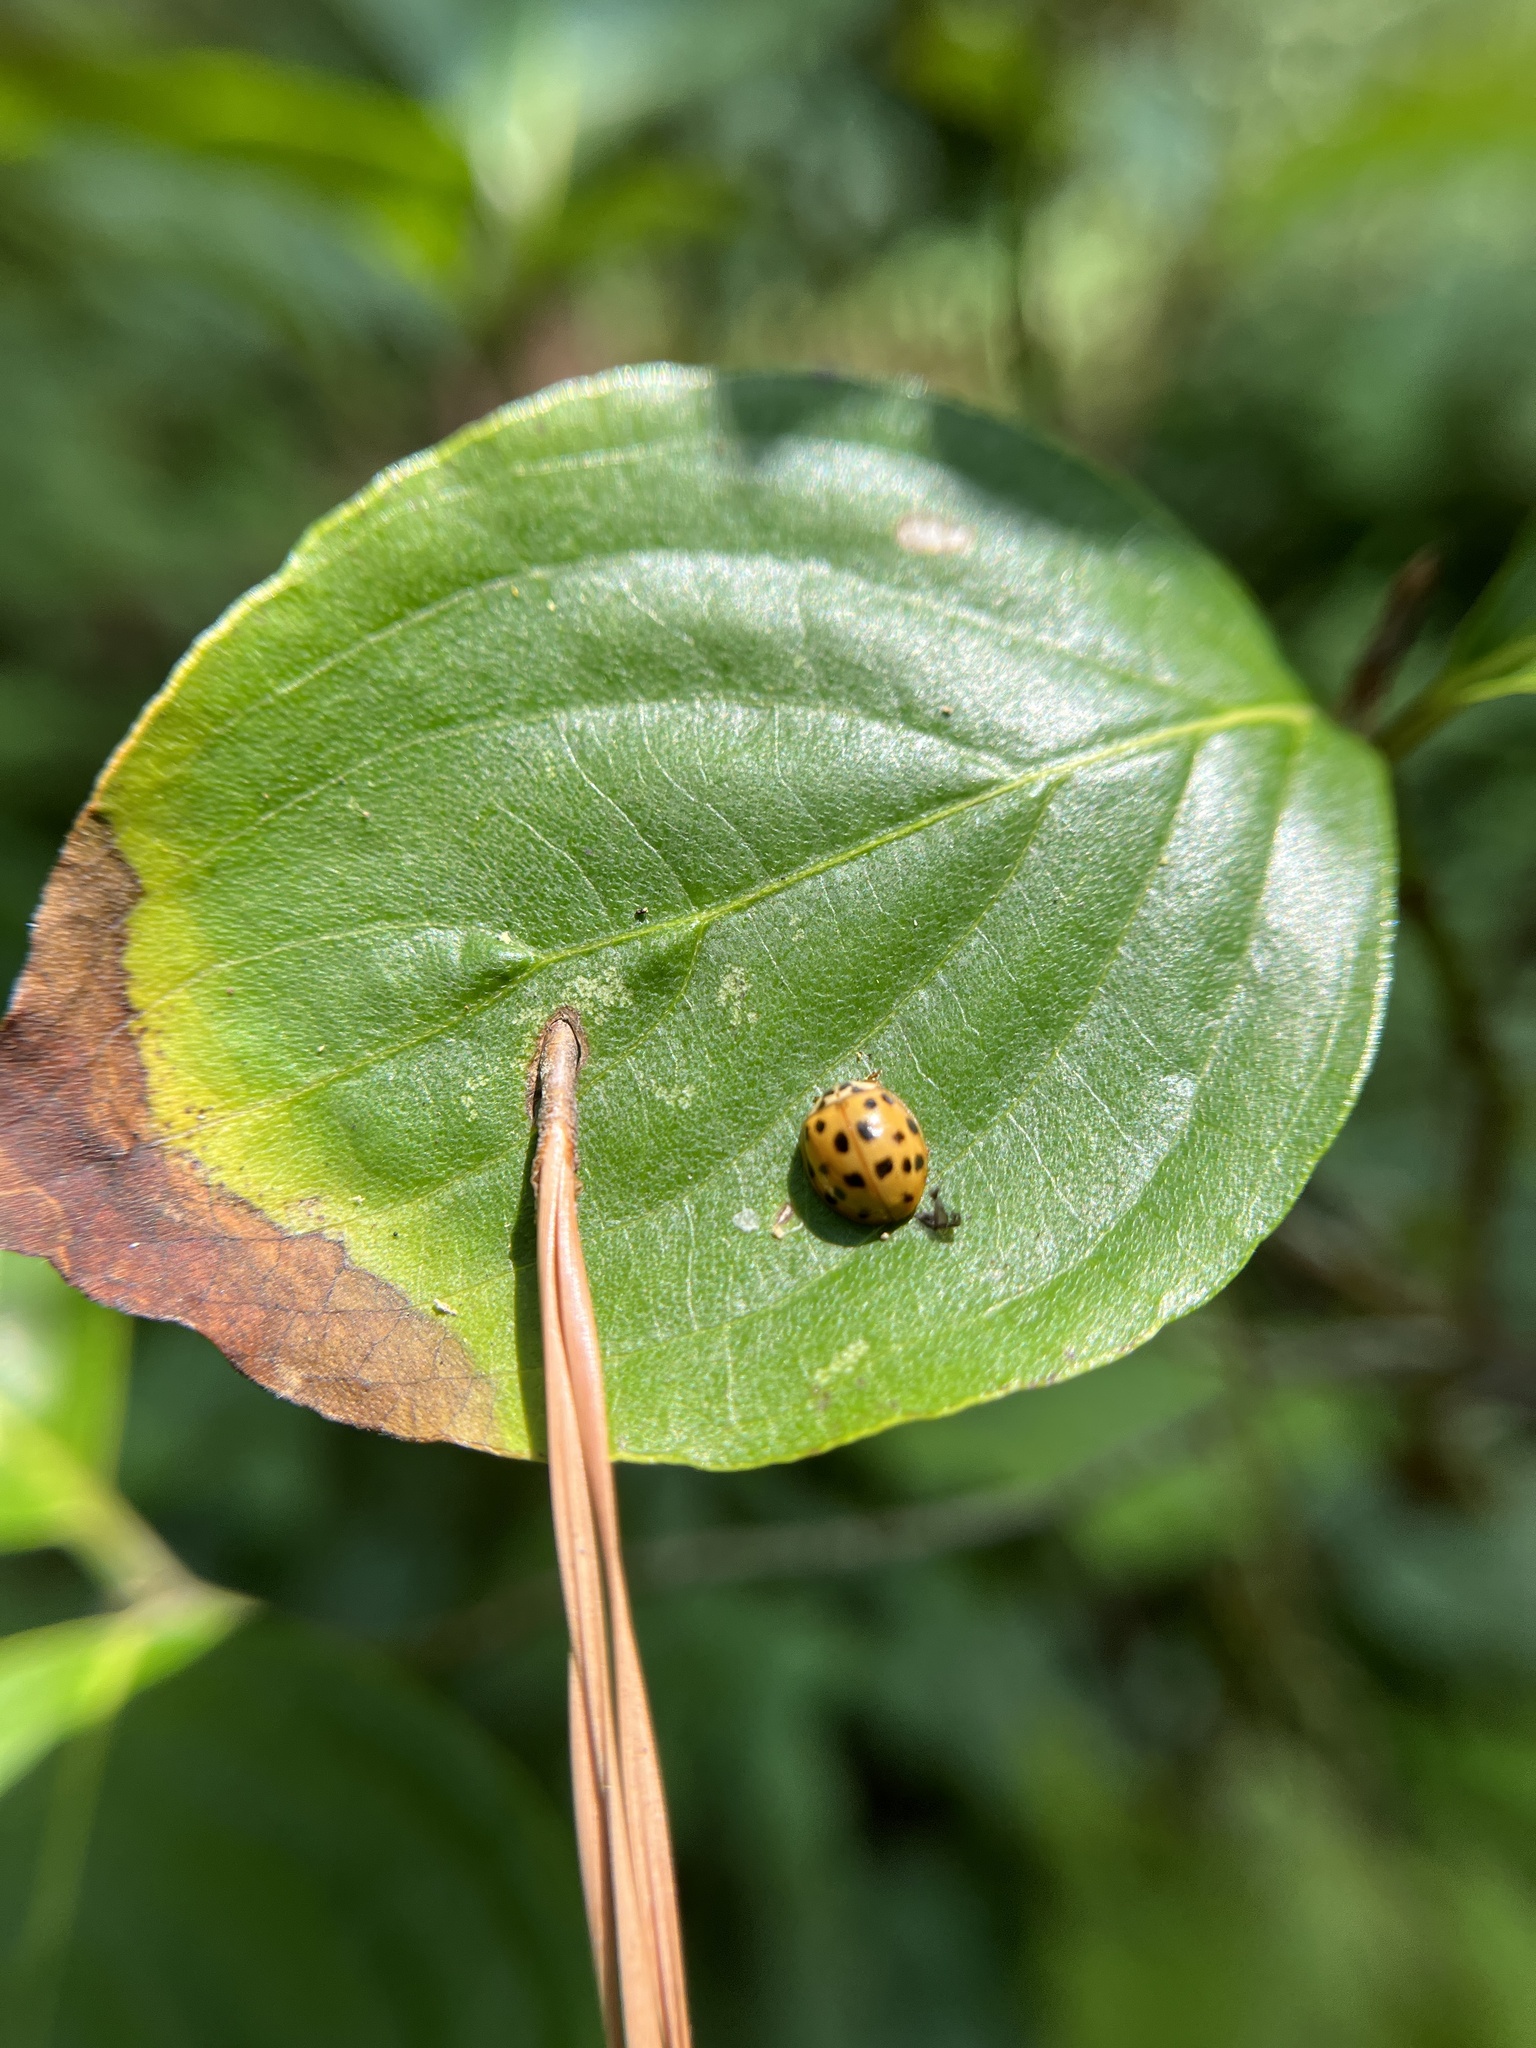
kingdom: Animalia
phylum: Arthropoda
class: Insecta
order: Coleoptera
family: Coccinellidae
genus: Harmonia
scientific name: Harmonia axyridis
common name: Harlequin ladybird
